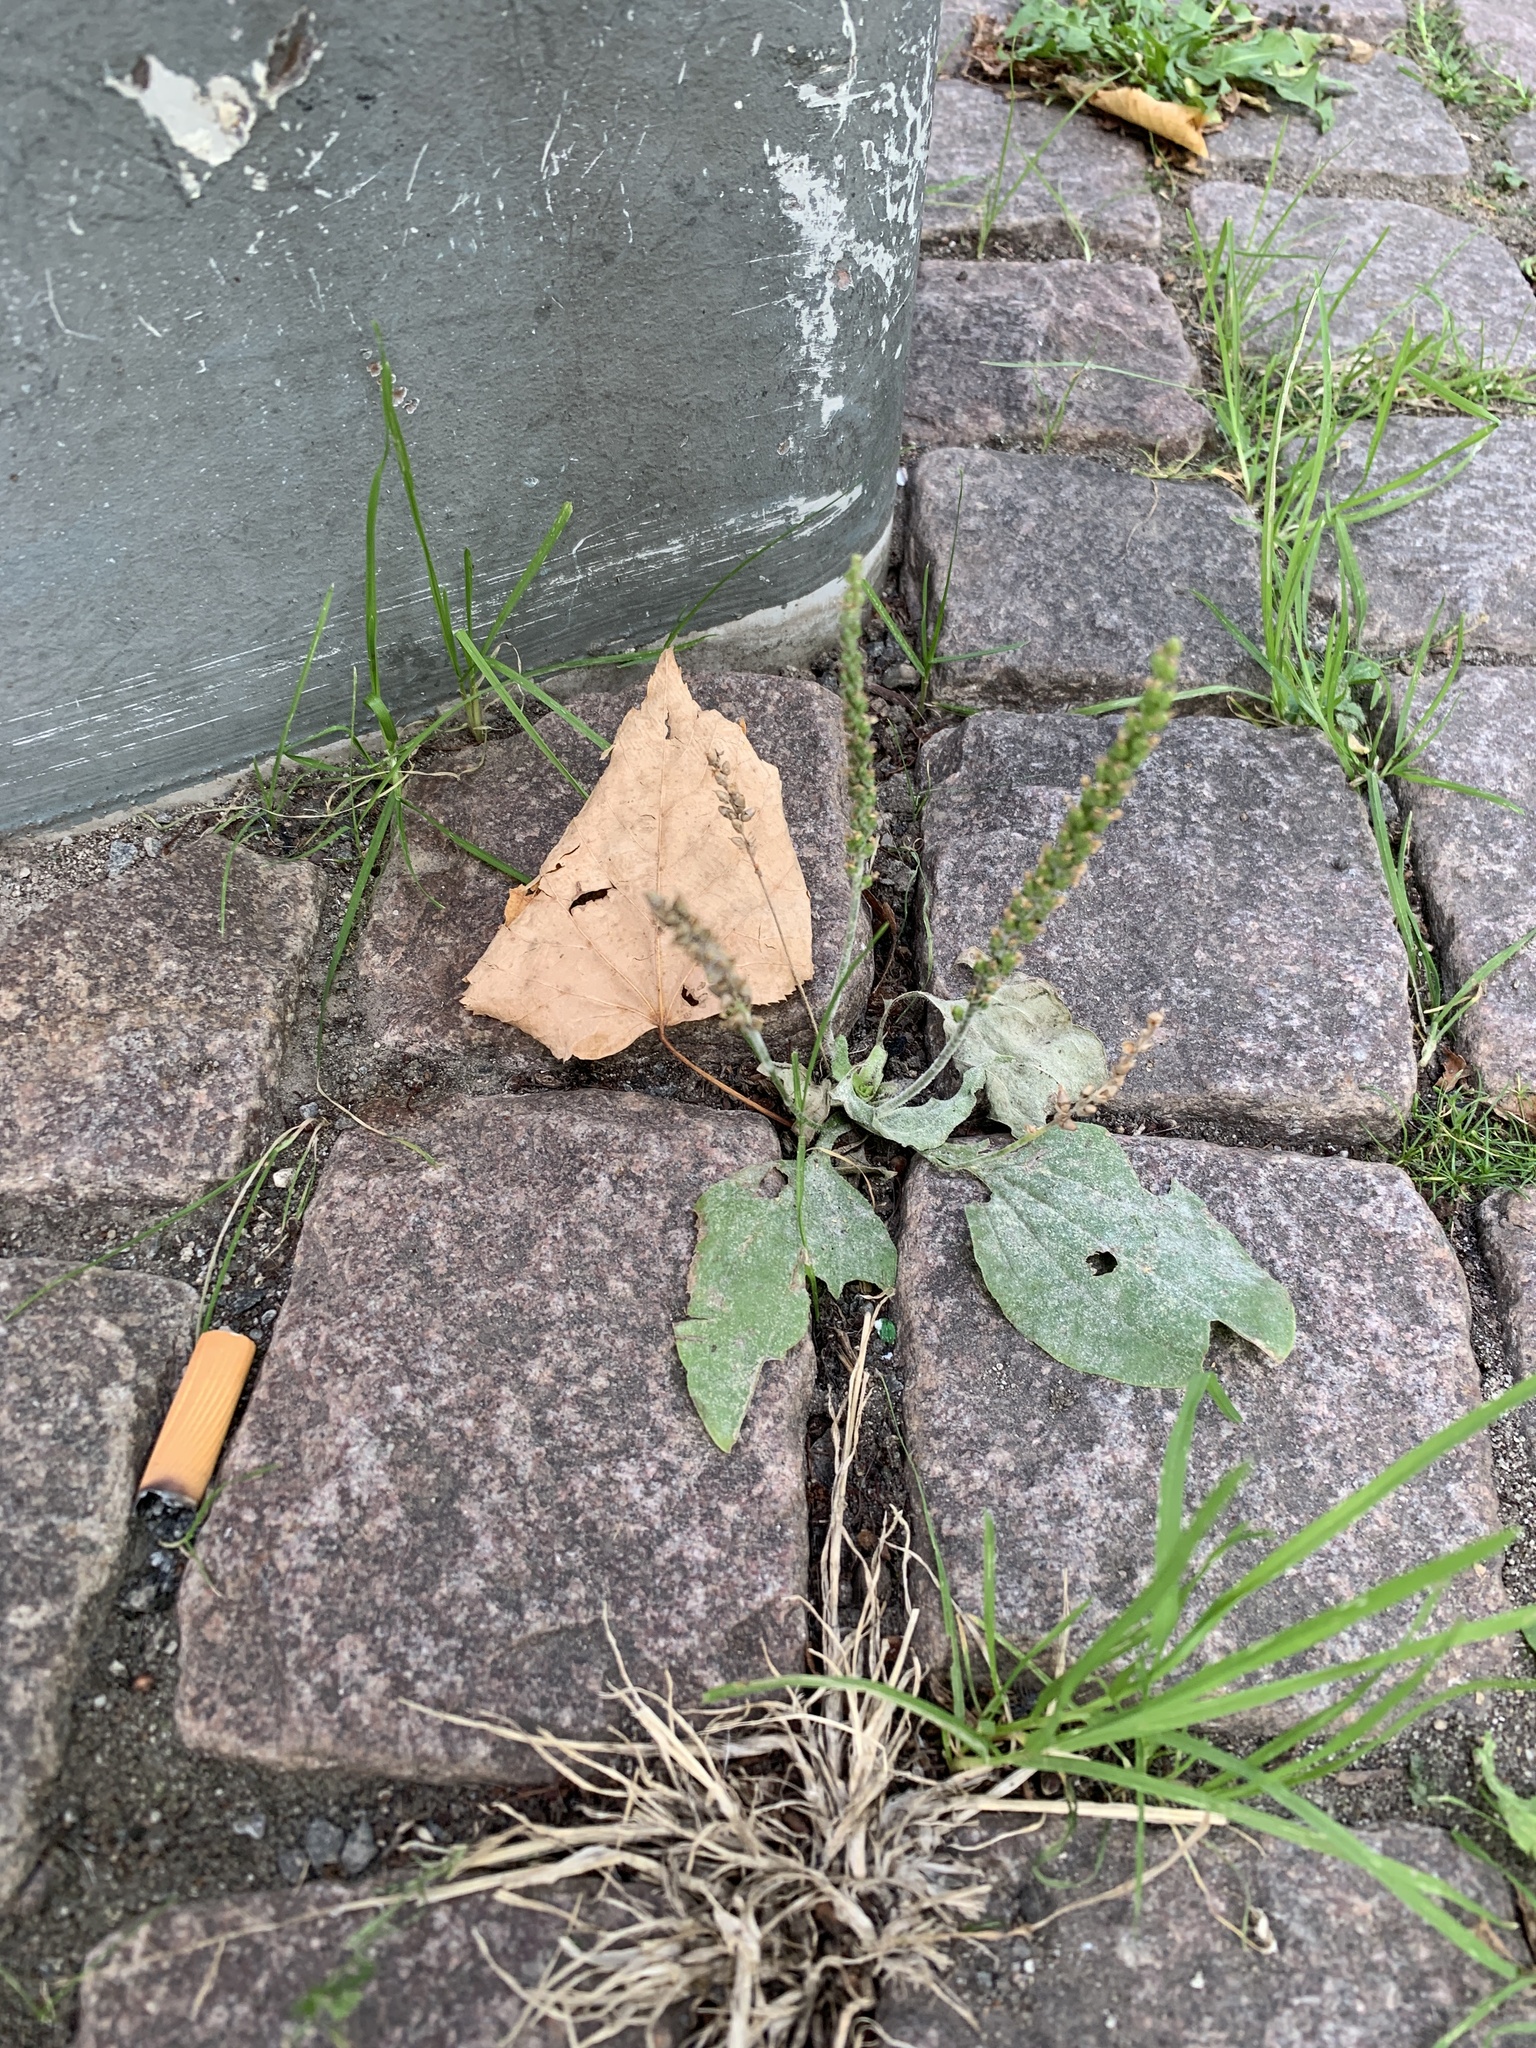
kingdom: Plantae
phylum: Tracheophyta
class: Magnoliopsida
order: Lamiales
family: Plantaginaceae
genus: Plantago
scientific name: Plantago major
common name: Common plantain
